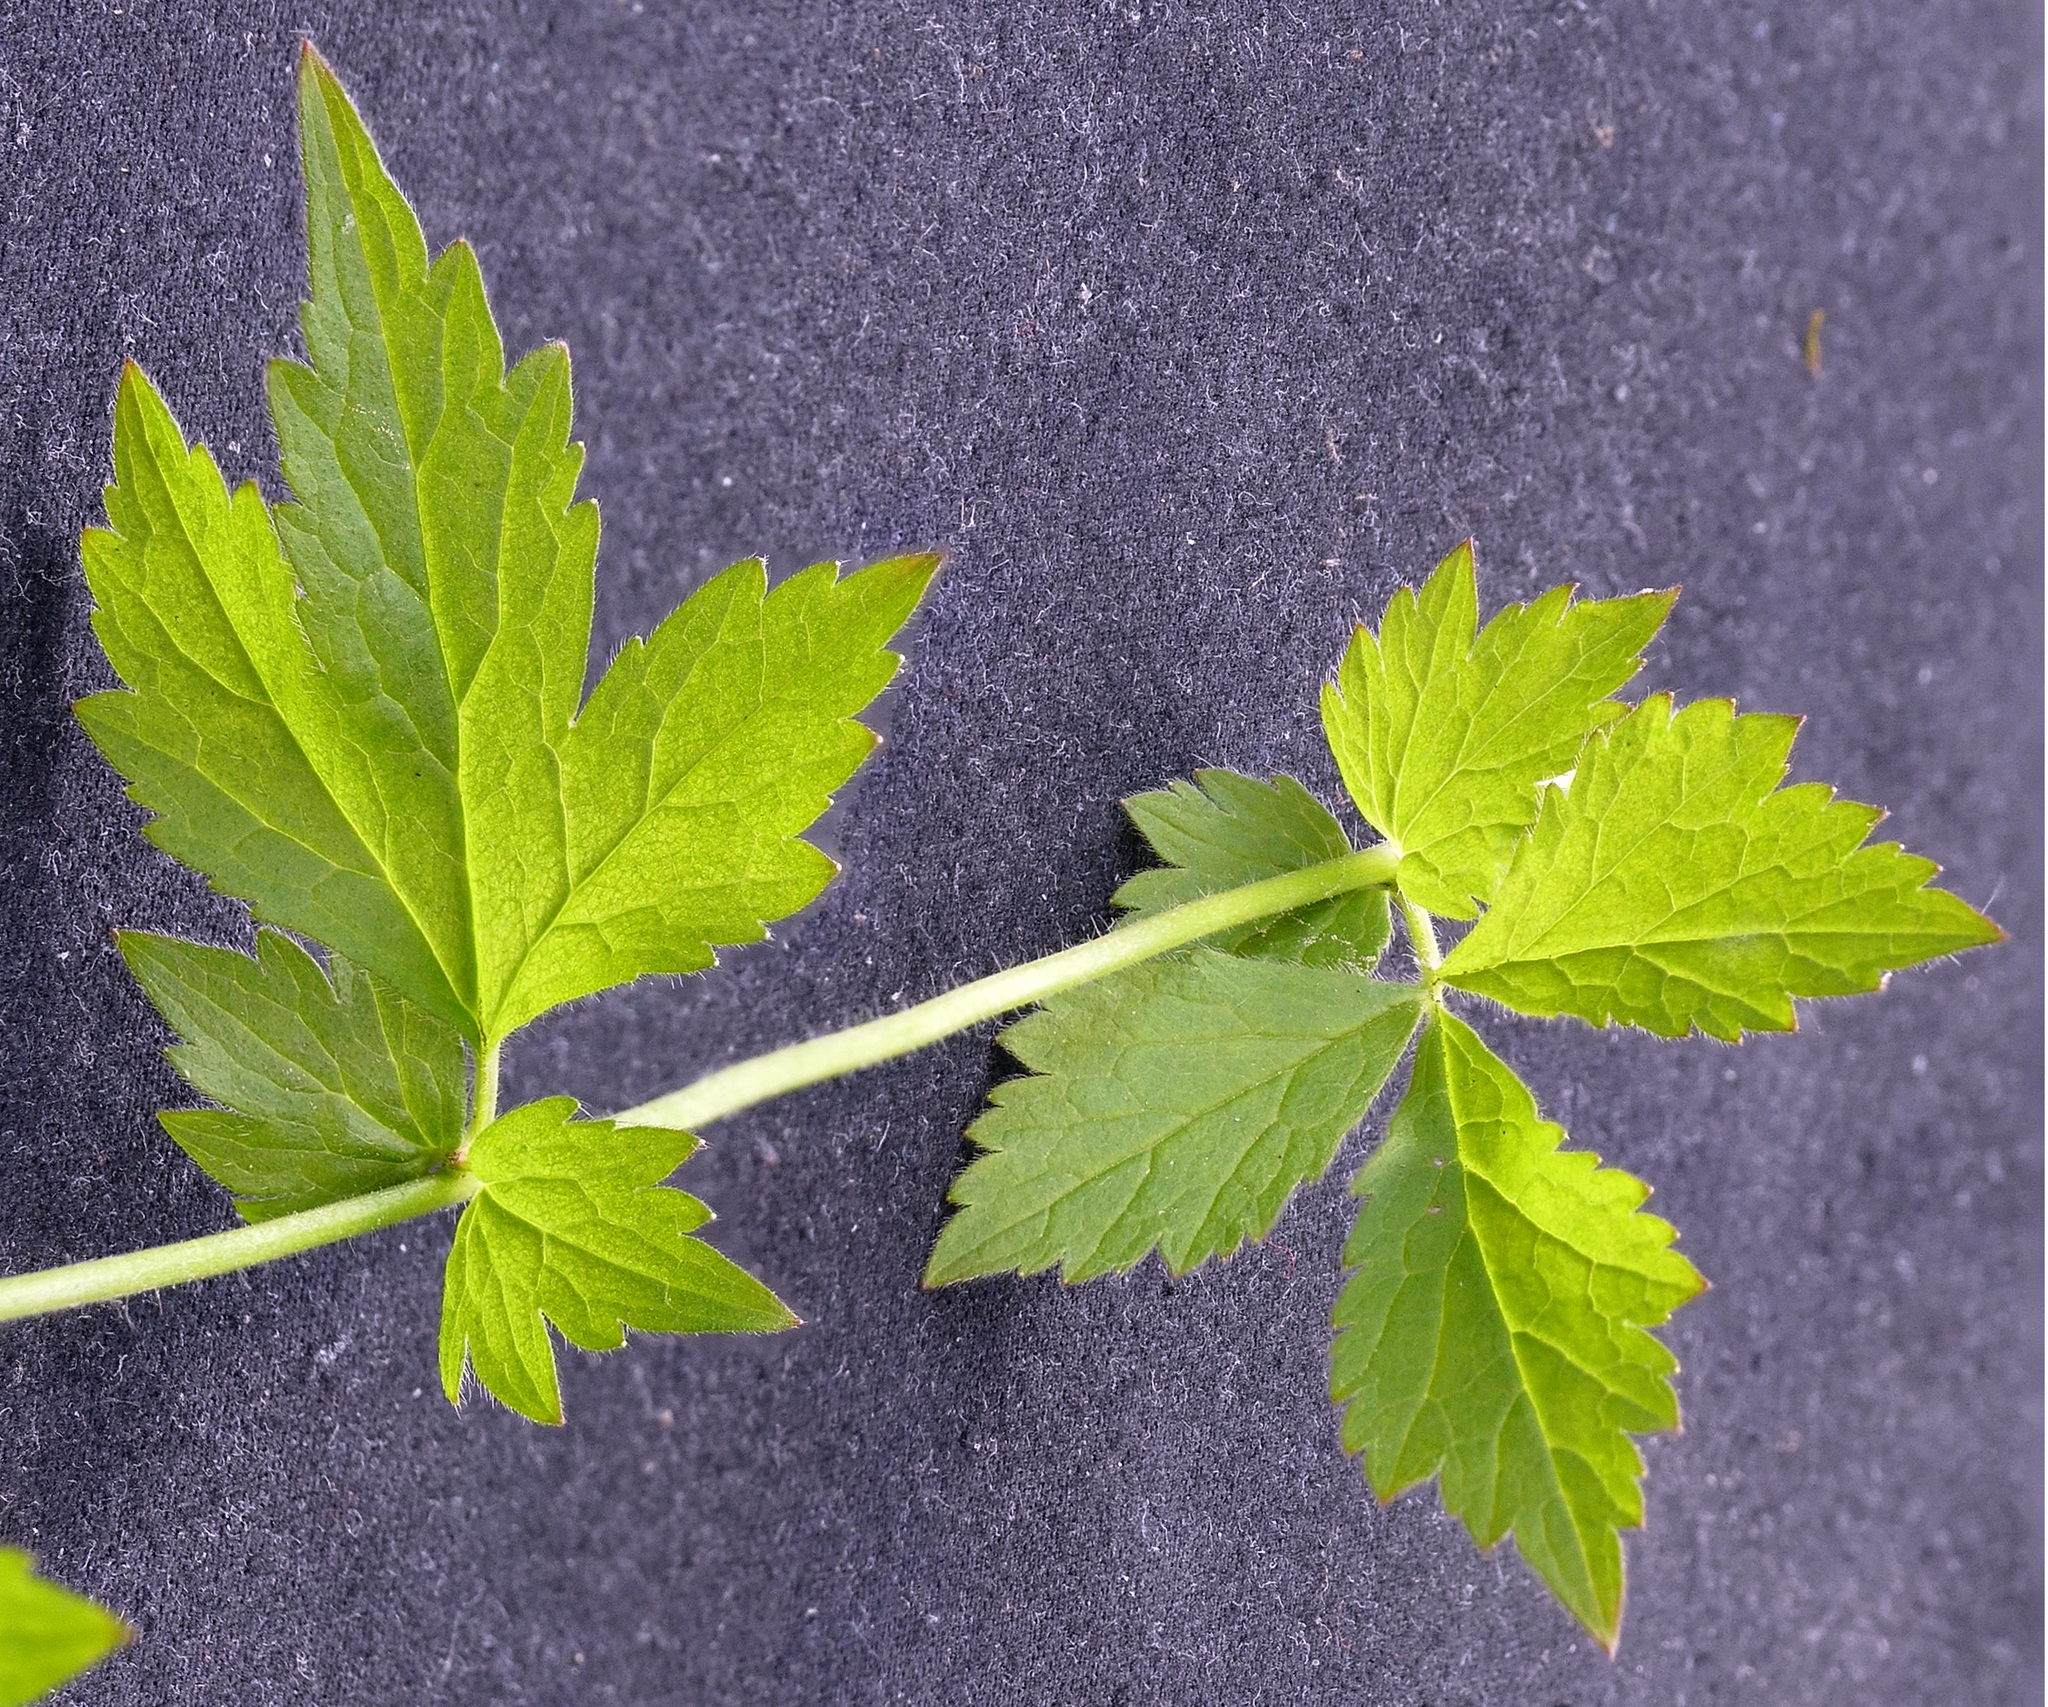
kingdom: Plantae
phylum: Tracheophyta
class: Magnoliopsida
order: Rosales
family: Rosaceae
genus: Geum
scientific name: Geum urbanum
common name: Wood avens
